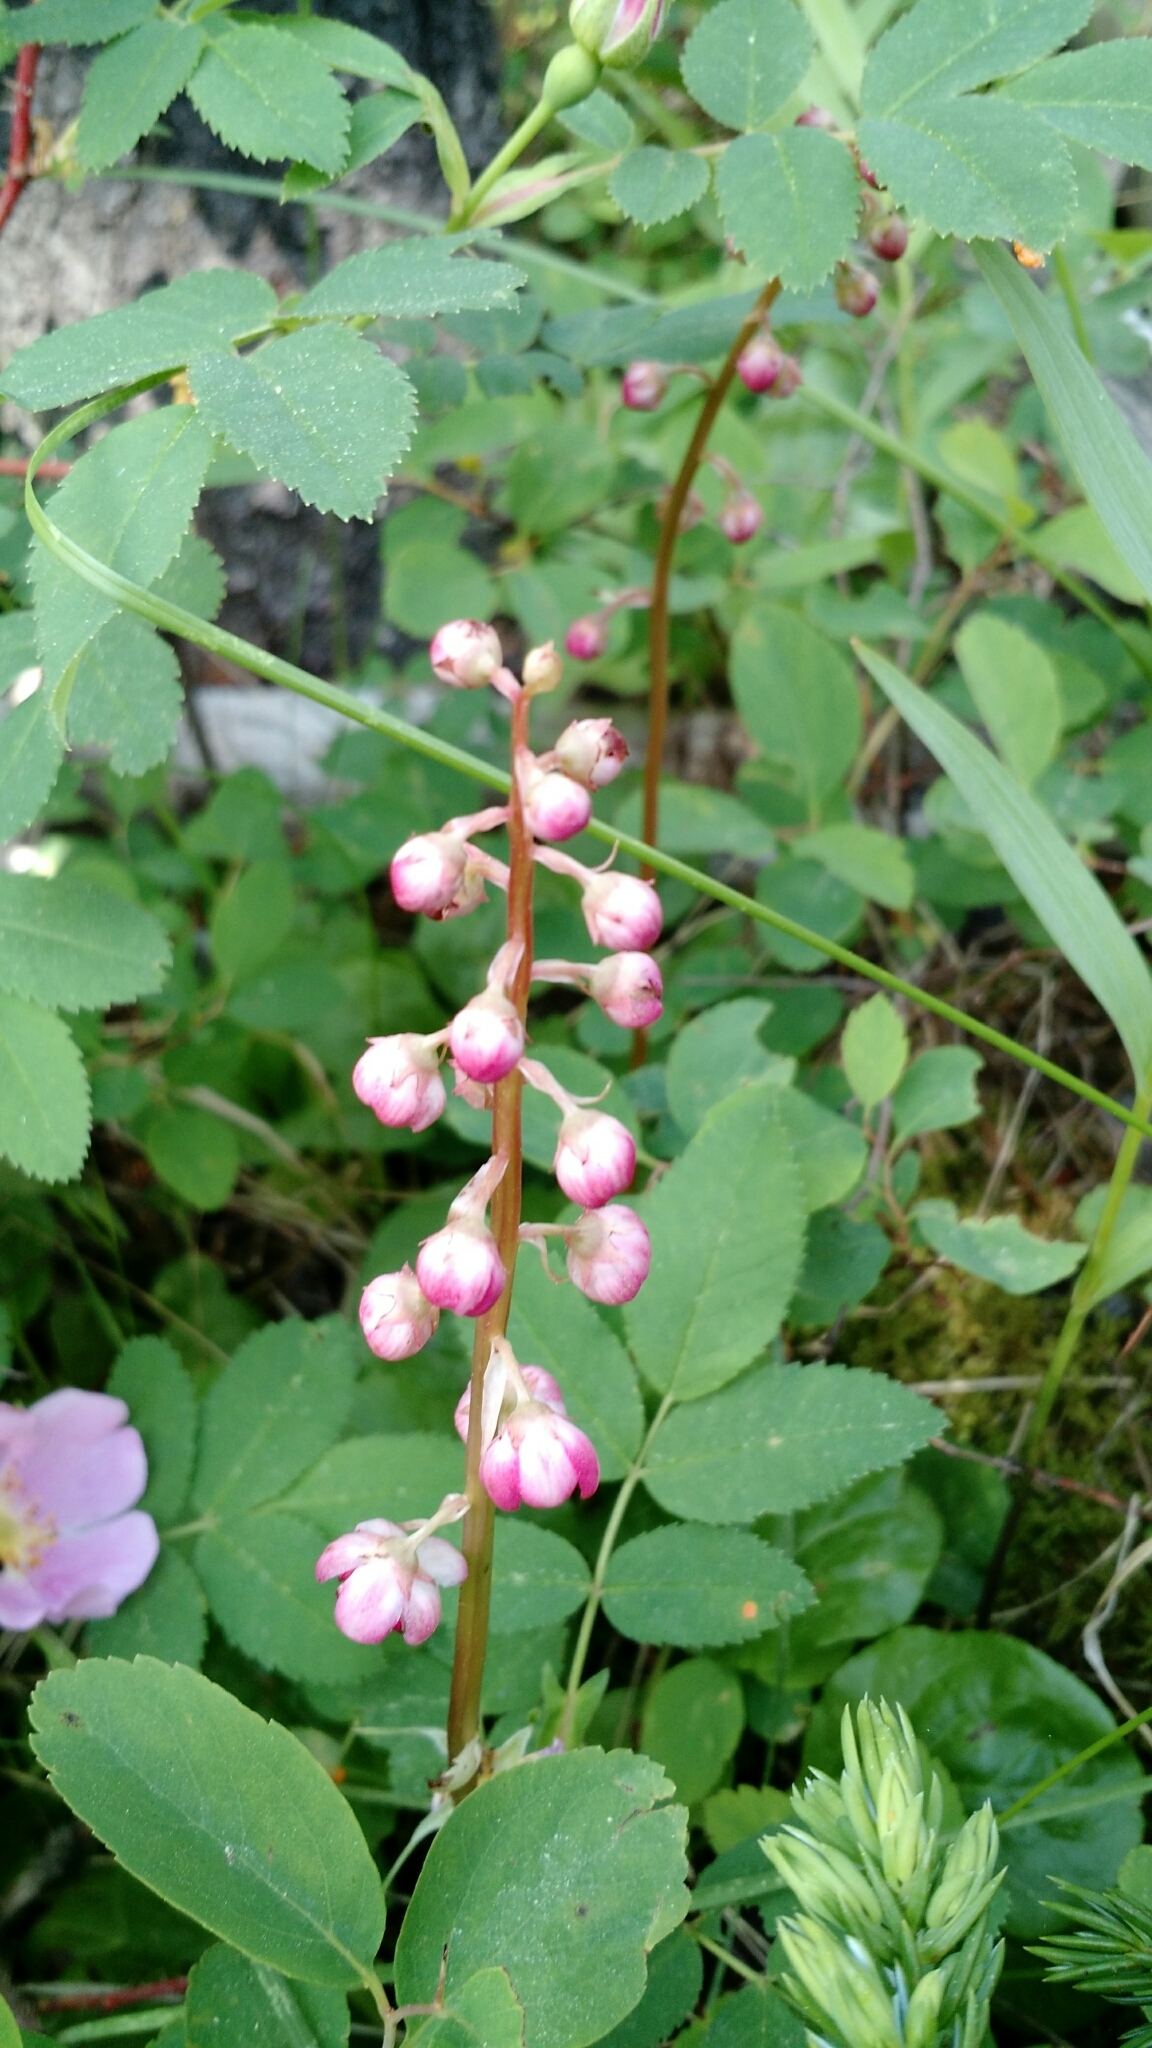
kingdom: Plantae
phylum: Tracheophyta
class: Magnoliopsida
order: Ericales
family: Ericaceae
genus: Pyrola
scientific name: Pyrola asarifolia
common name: Bog wintergreen
